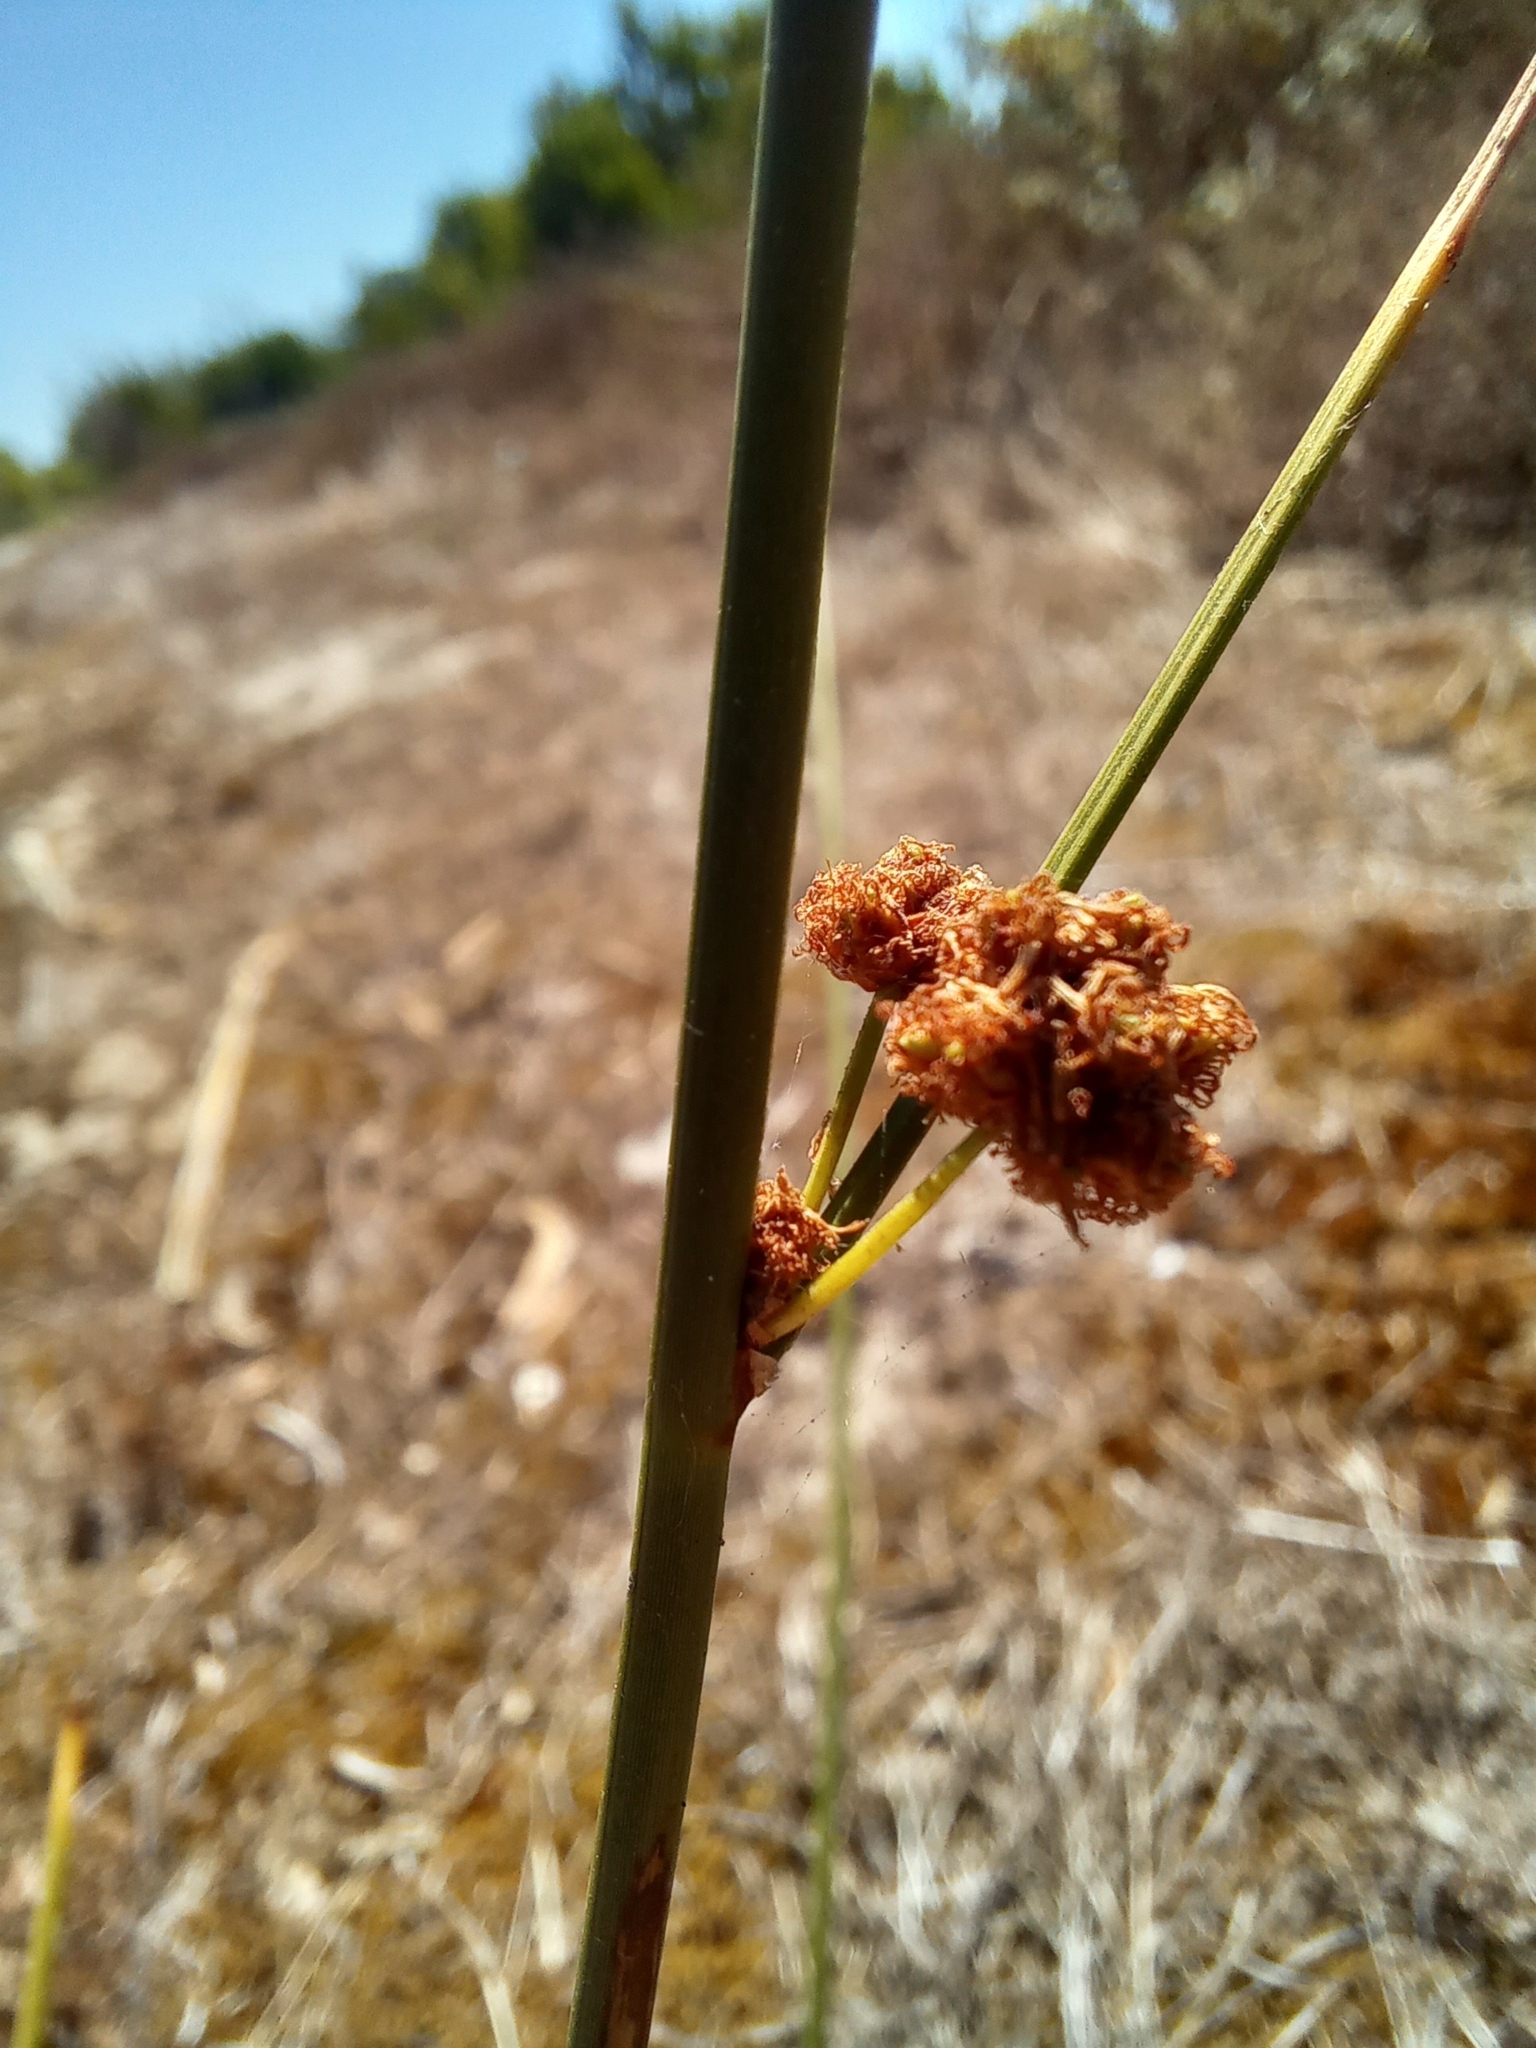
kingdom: Plantae
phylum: Tracheophyta
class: Liliopsida
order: Poales
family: Cyperaceae
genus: Scirpoides
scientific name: Scirpoides holoschoenus
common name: Round-headed club-rush
